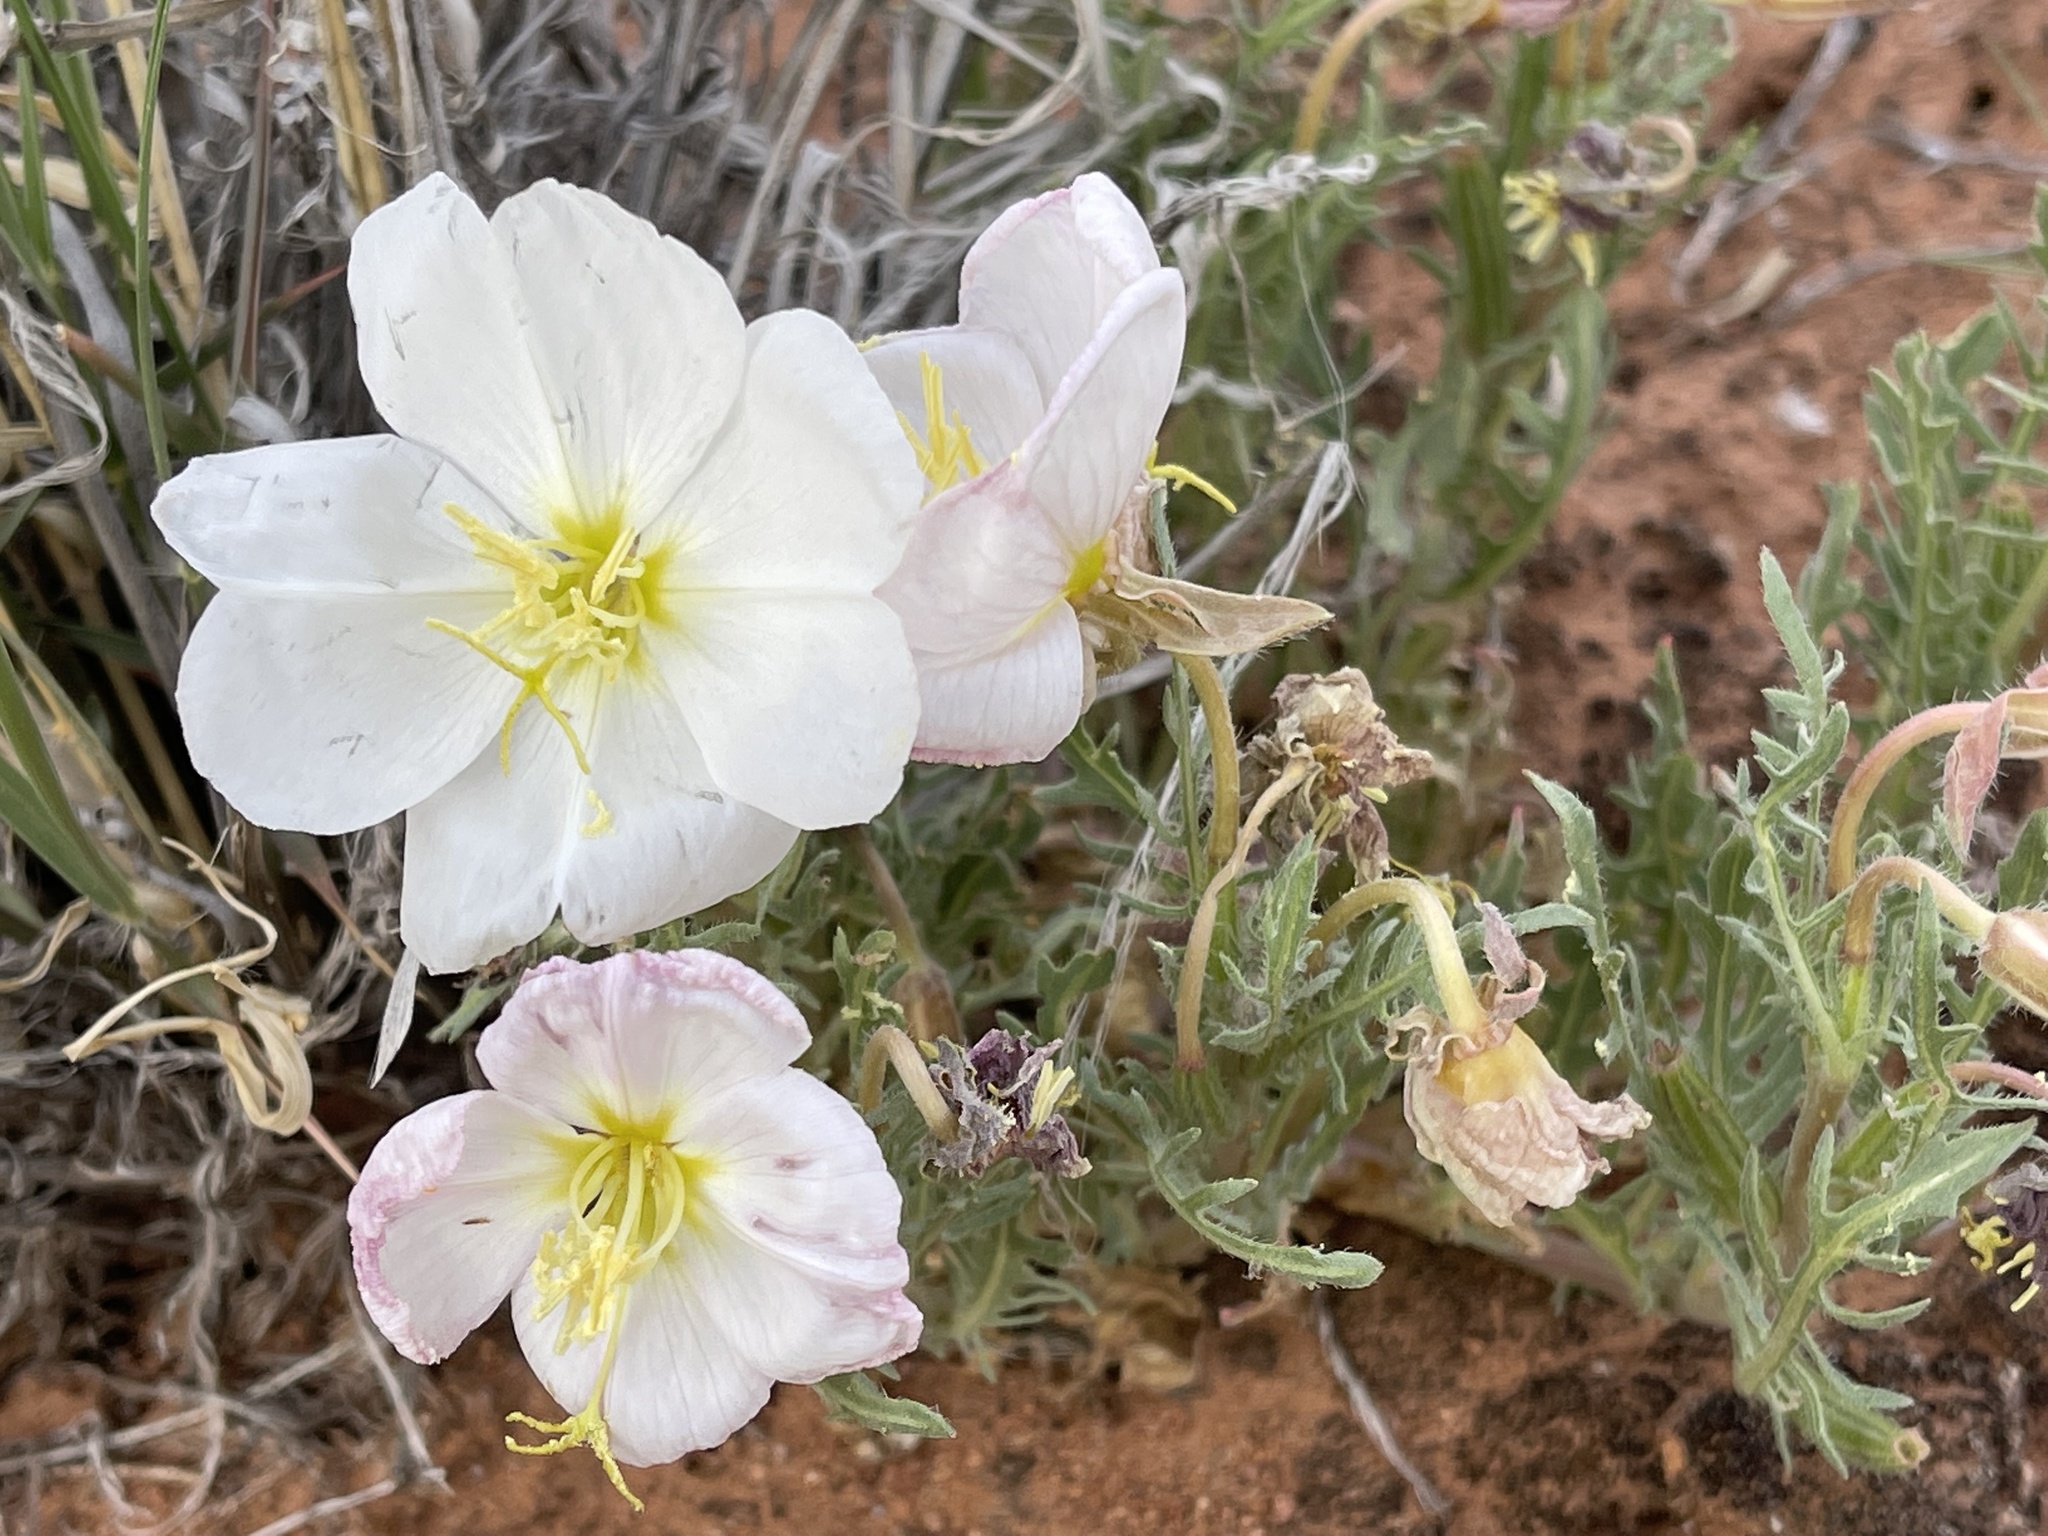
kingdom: Plantae
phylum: Tracheophyta
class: Magnoliopsida
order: Myrtales
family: Onagraceae
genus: Oenothera
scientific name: Oenothera cespitosa
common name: Tufted evening-primrose
